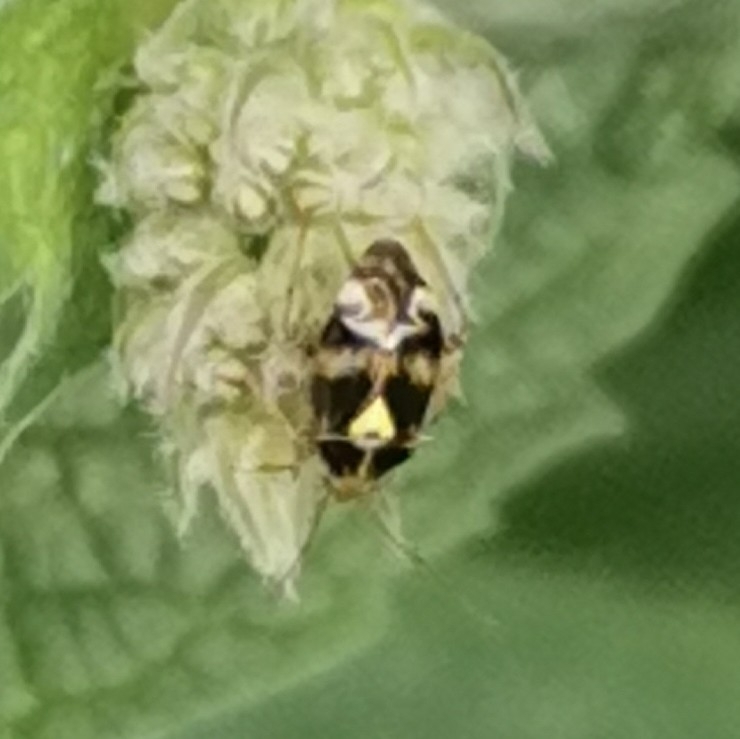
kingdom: Animalia
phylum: Arthropoda
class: Insecta
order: Hemiptera
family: Miridae
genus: Liocoris
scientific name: Liocoris tripustulatus
